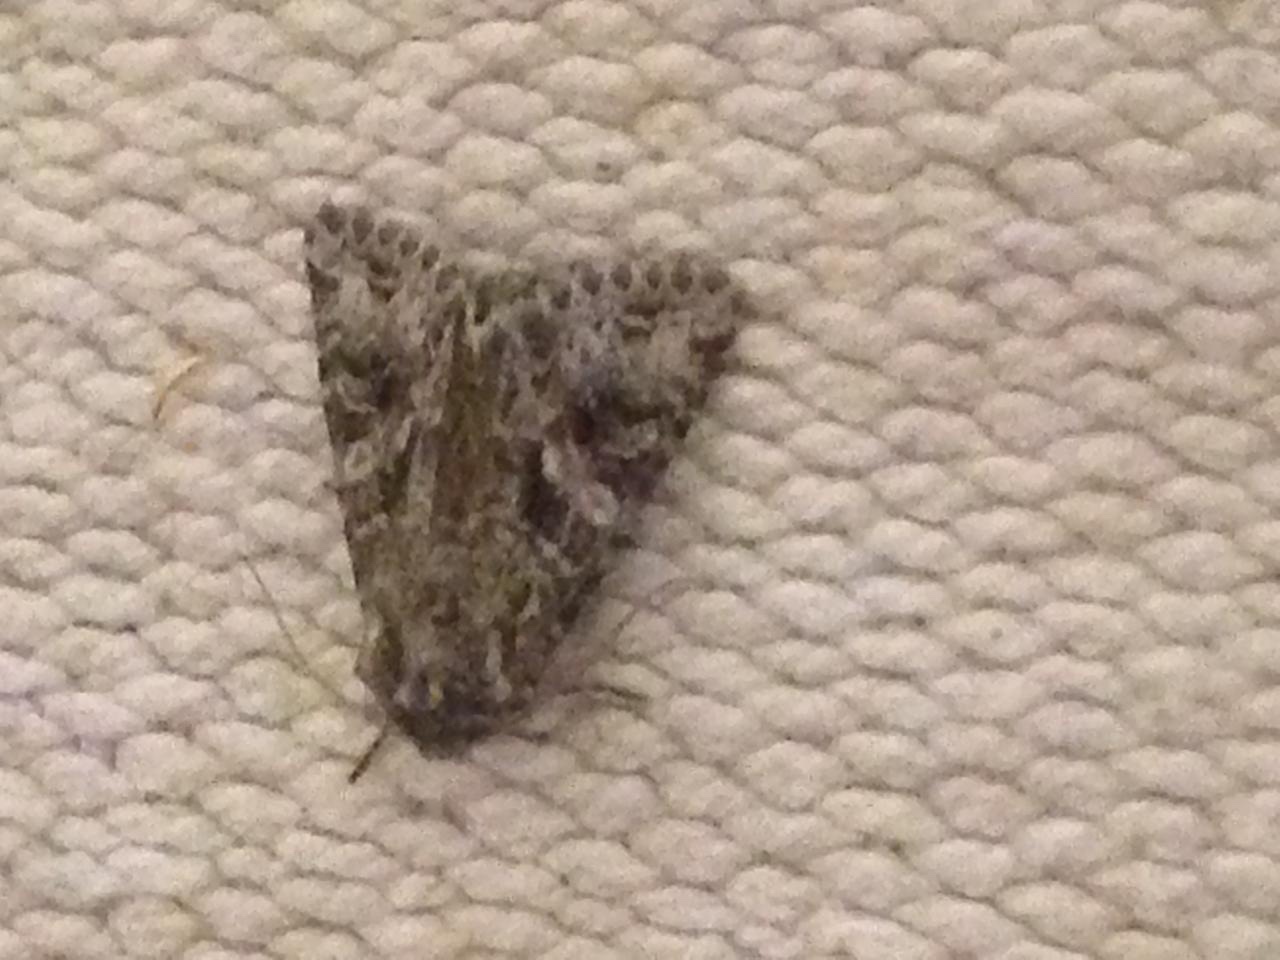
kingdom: Animalia
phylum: Arthropoda
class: Insecta
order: Lepidoptera
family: Noctuidae
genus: Hada
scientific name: Hada plebeja
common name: Shears
